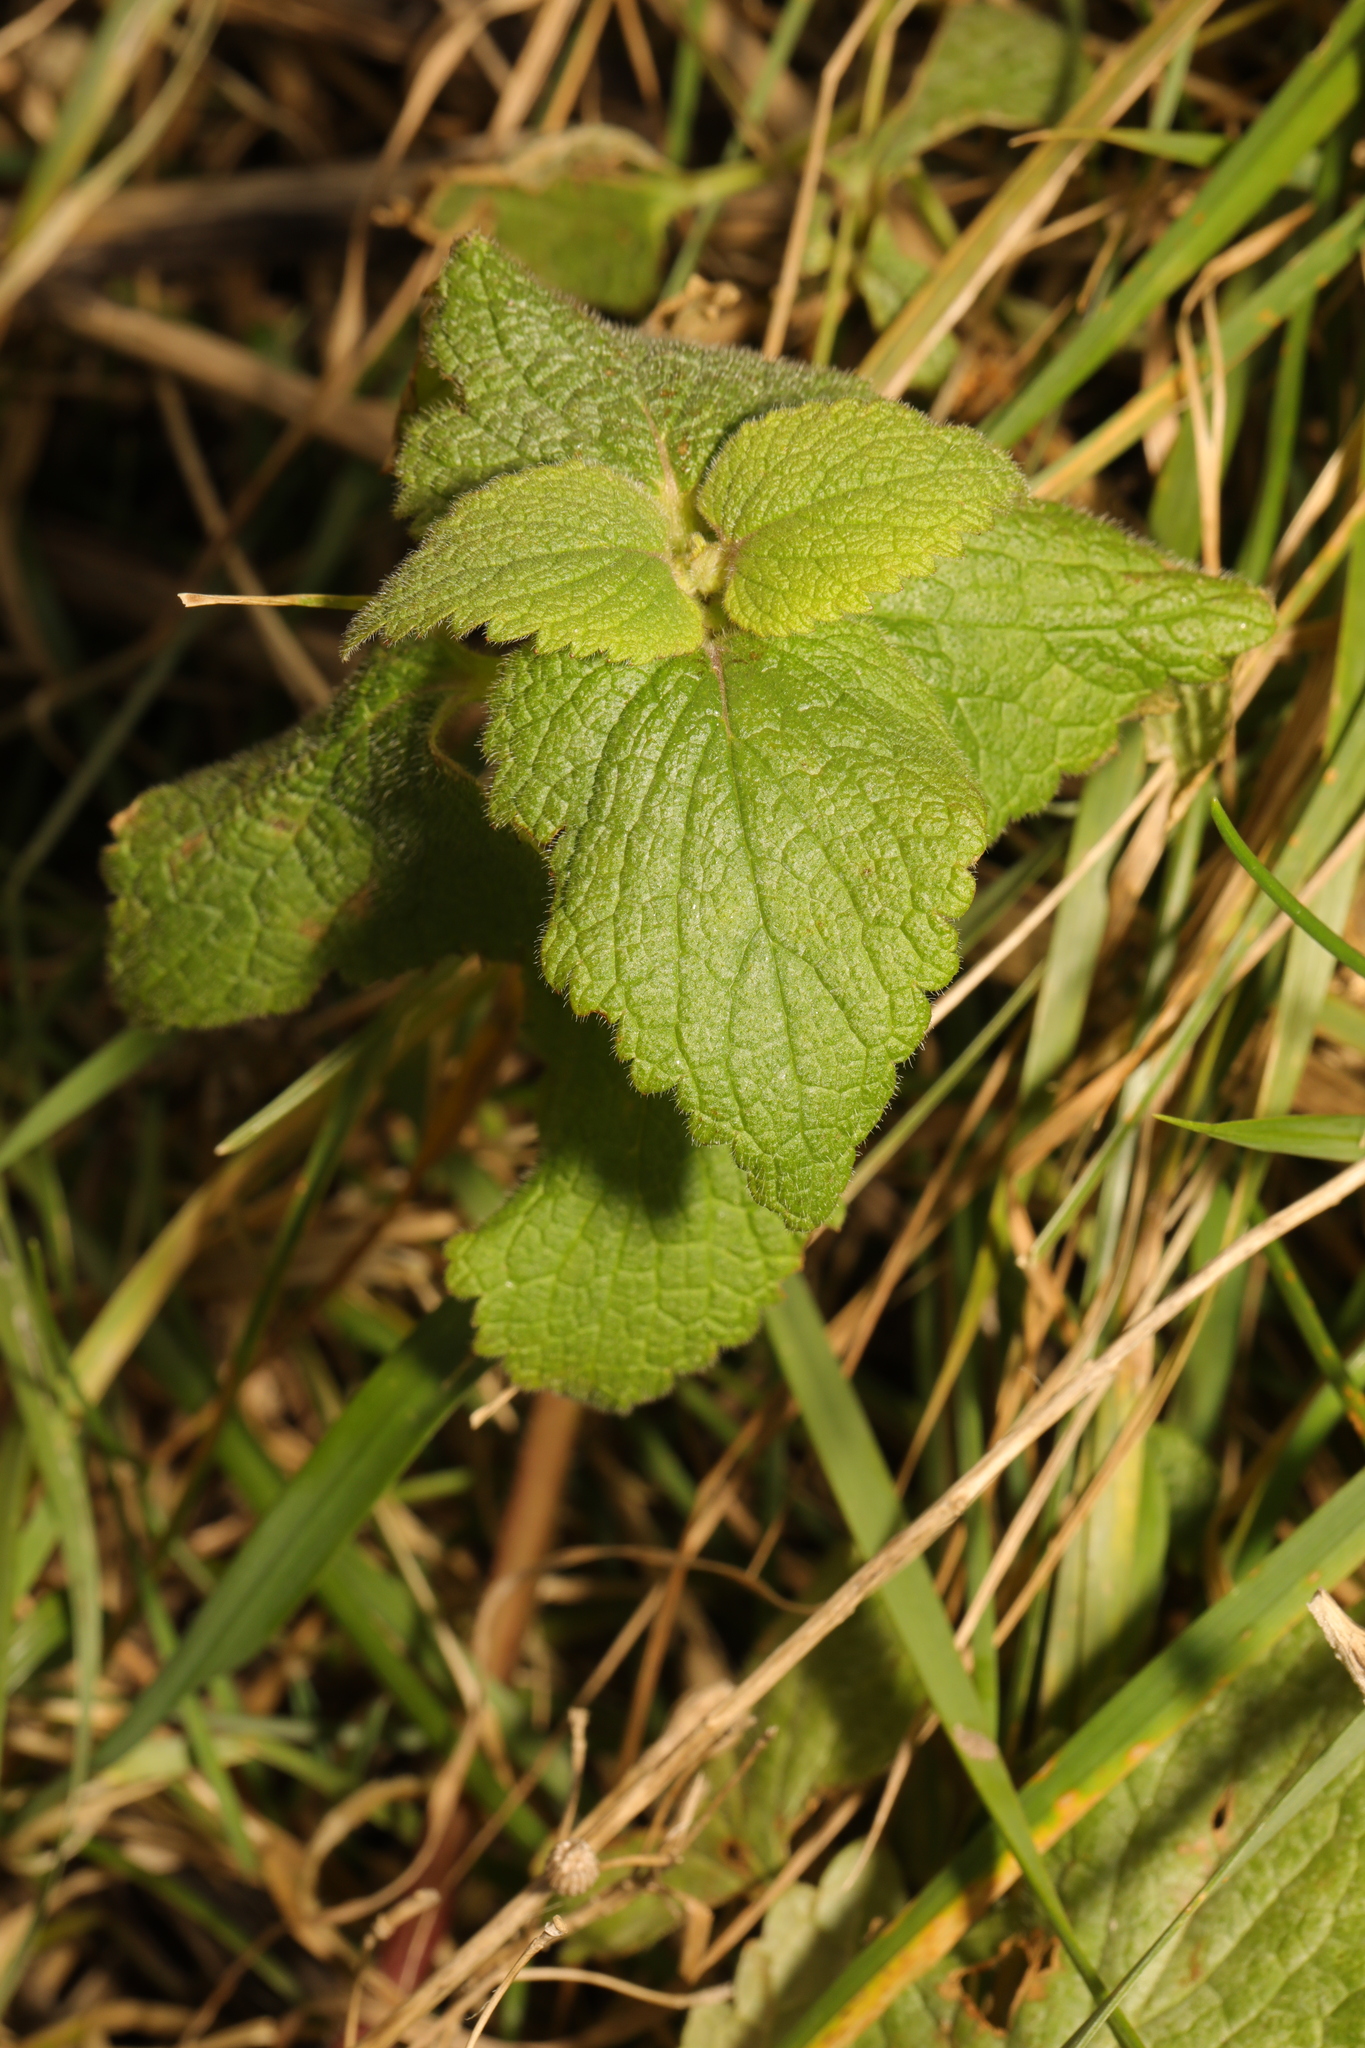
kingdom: Plantae
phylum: Tracheophyta
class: Magnoliopsida
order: Lamiales
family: Lamiaceae
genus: Lamium
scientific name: Lamium album
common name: White dead-nettle
